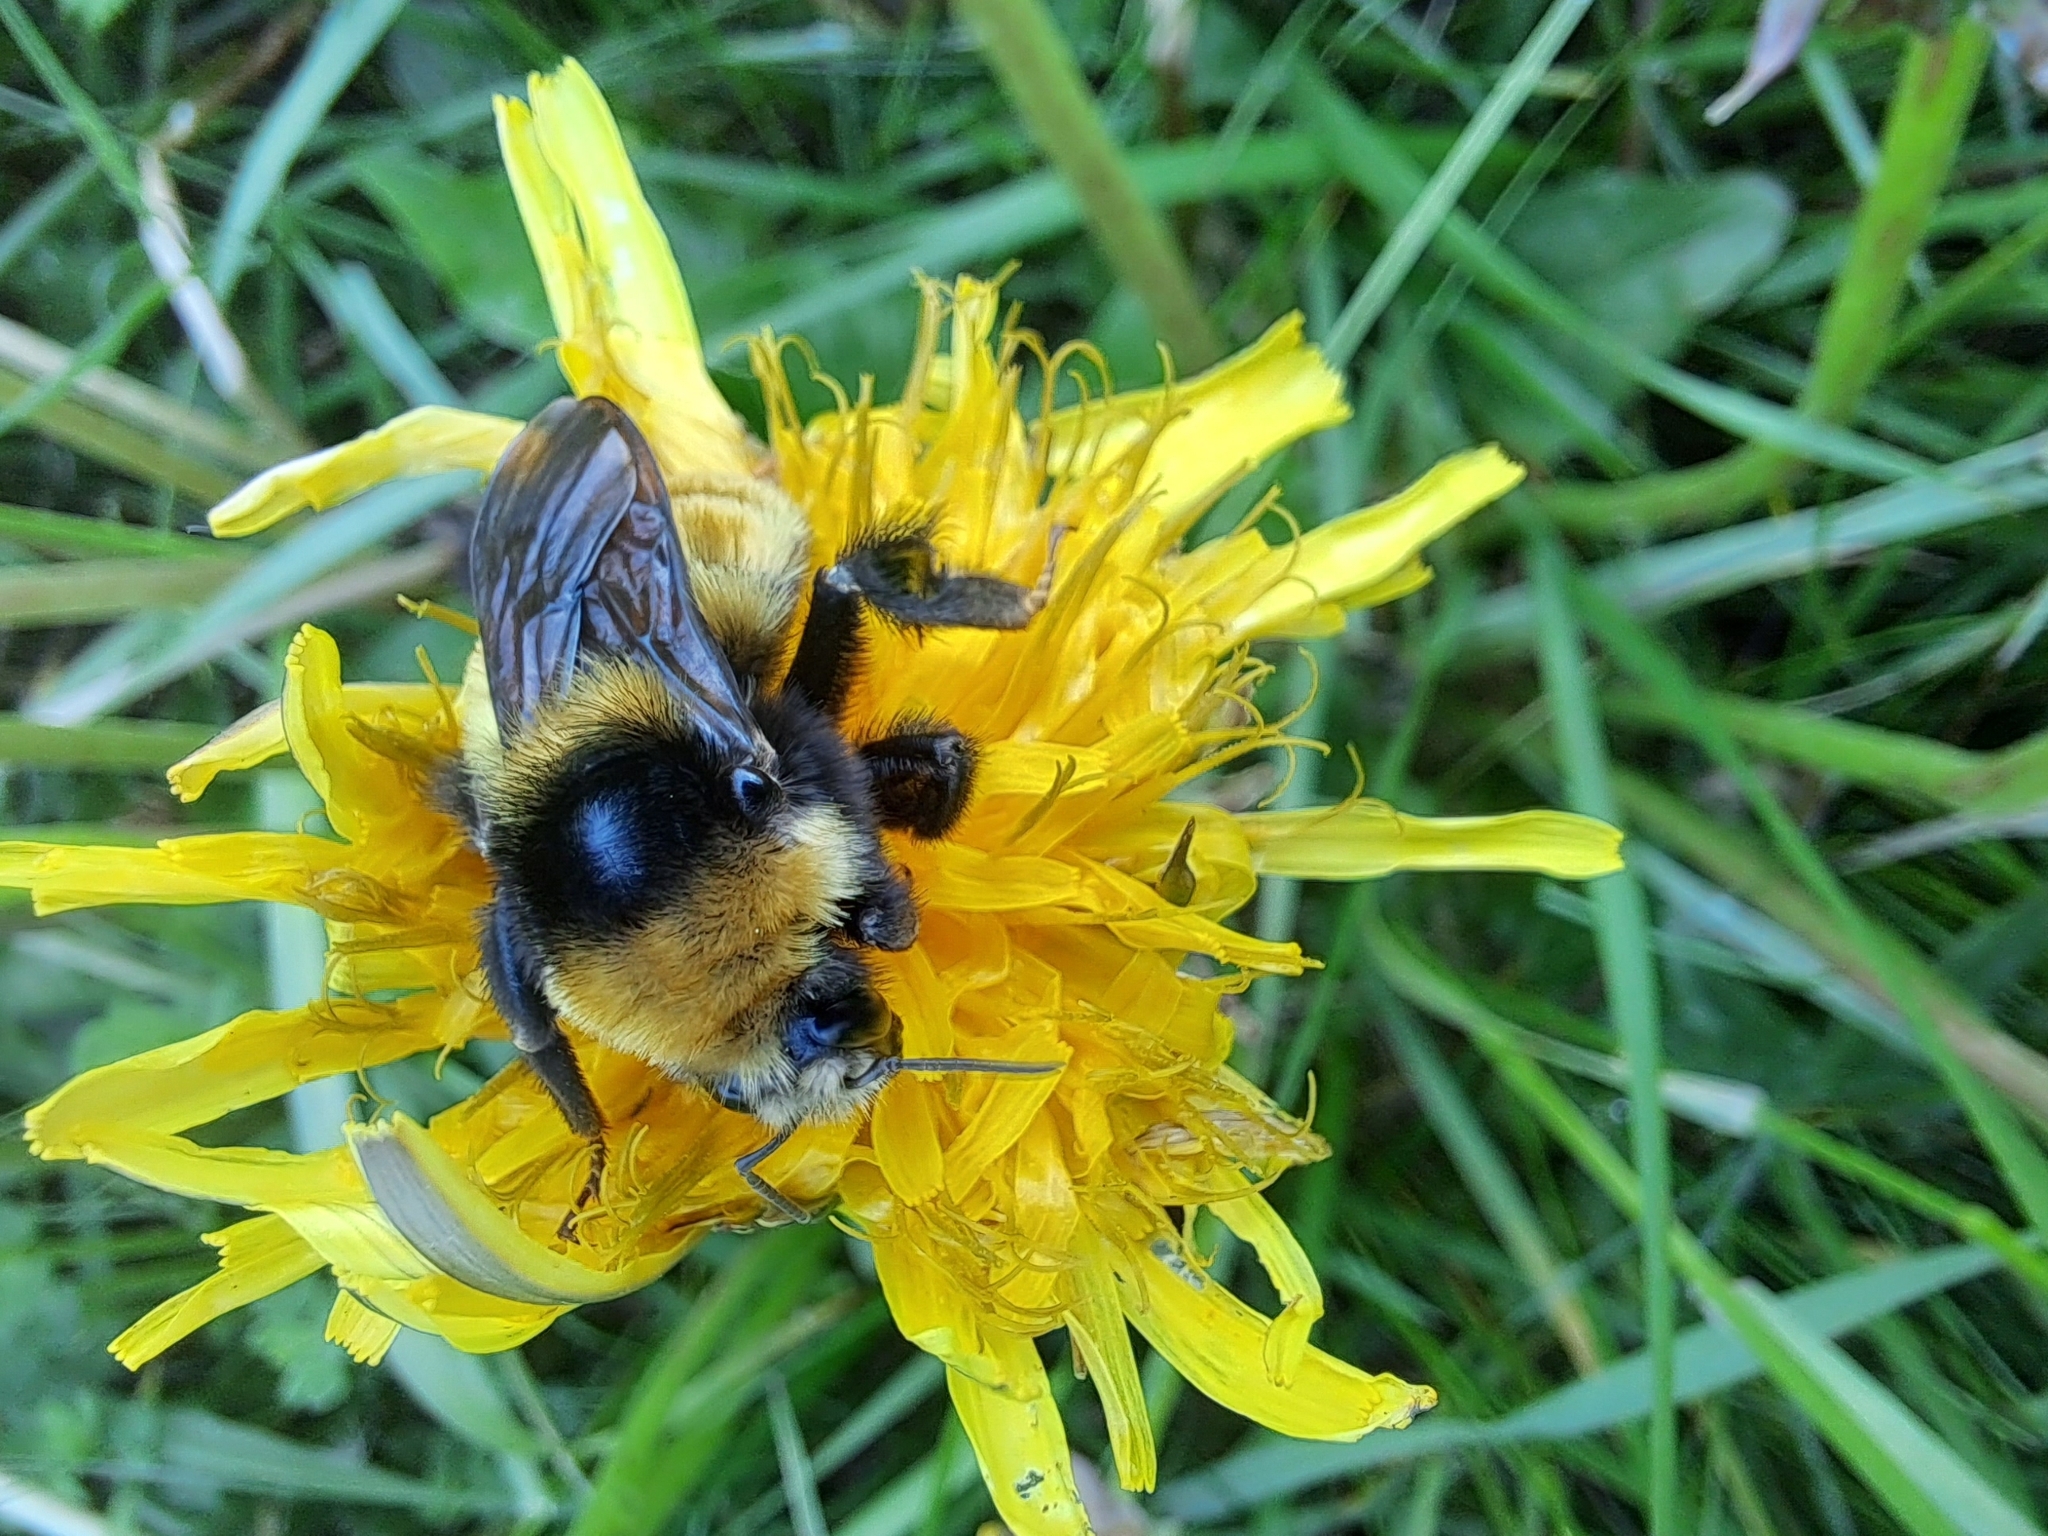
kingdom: Animalia
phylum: Arthropoda
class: Insecta
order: Hymenoptera
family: Apidae
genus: Bombus
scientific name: Bombus borealis
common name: Northern amber bumble bee
